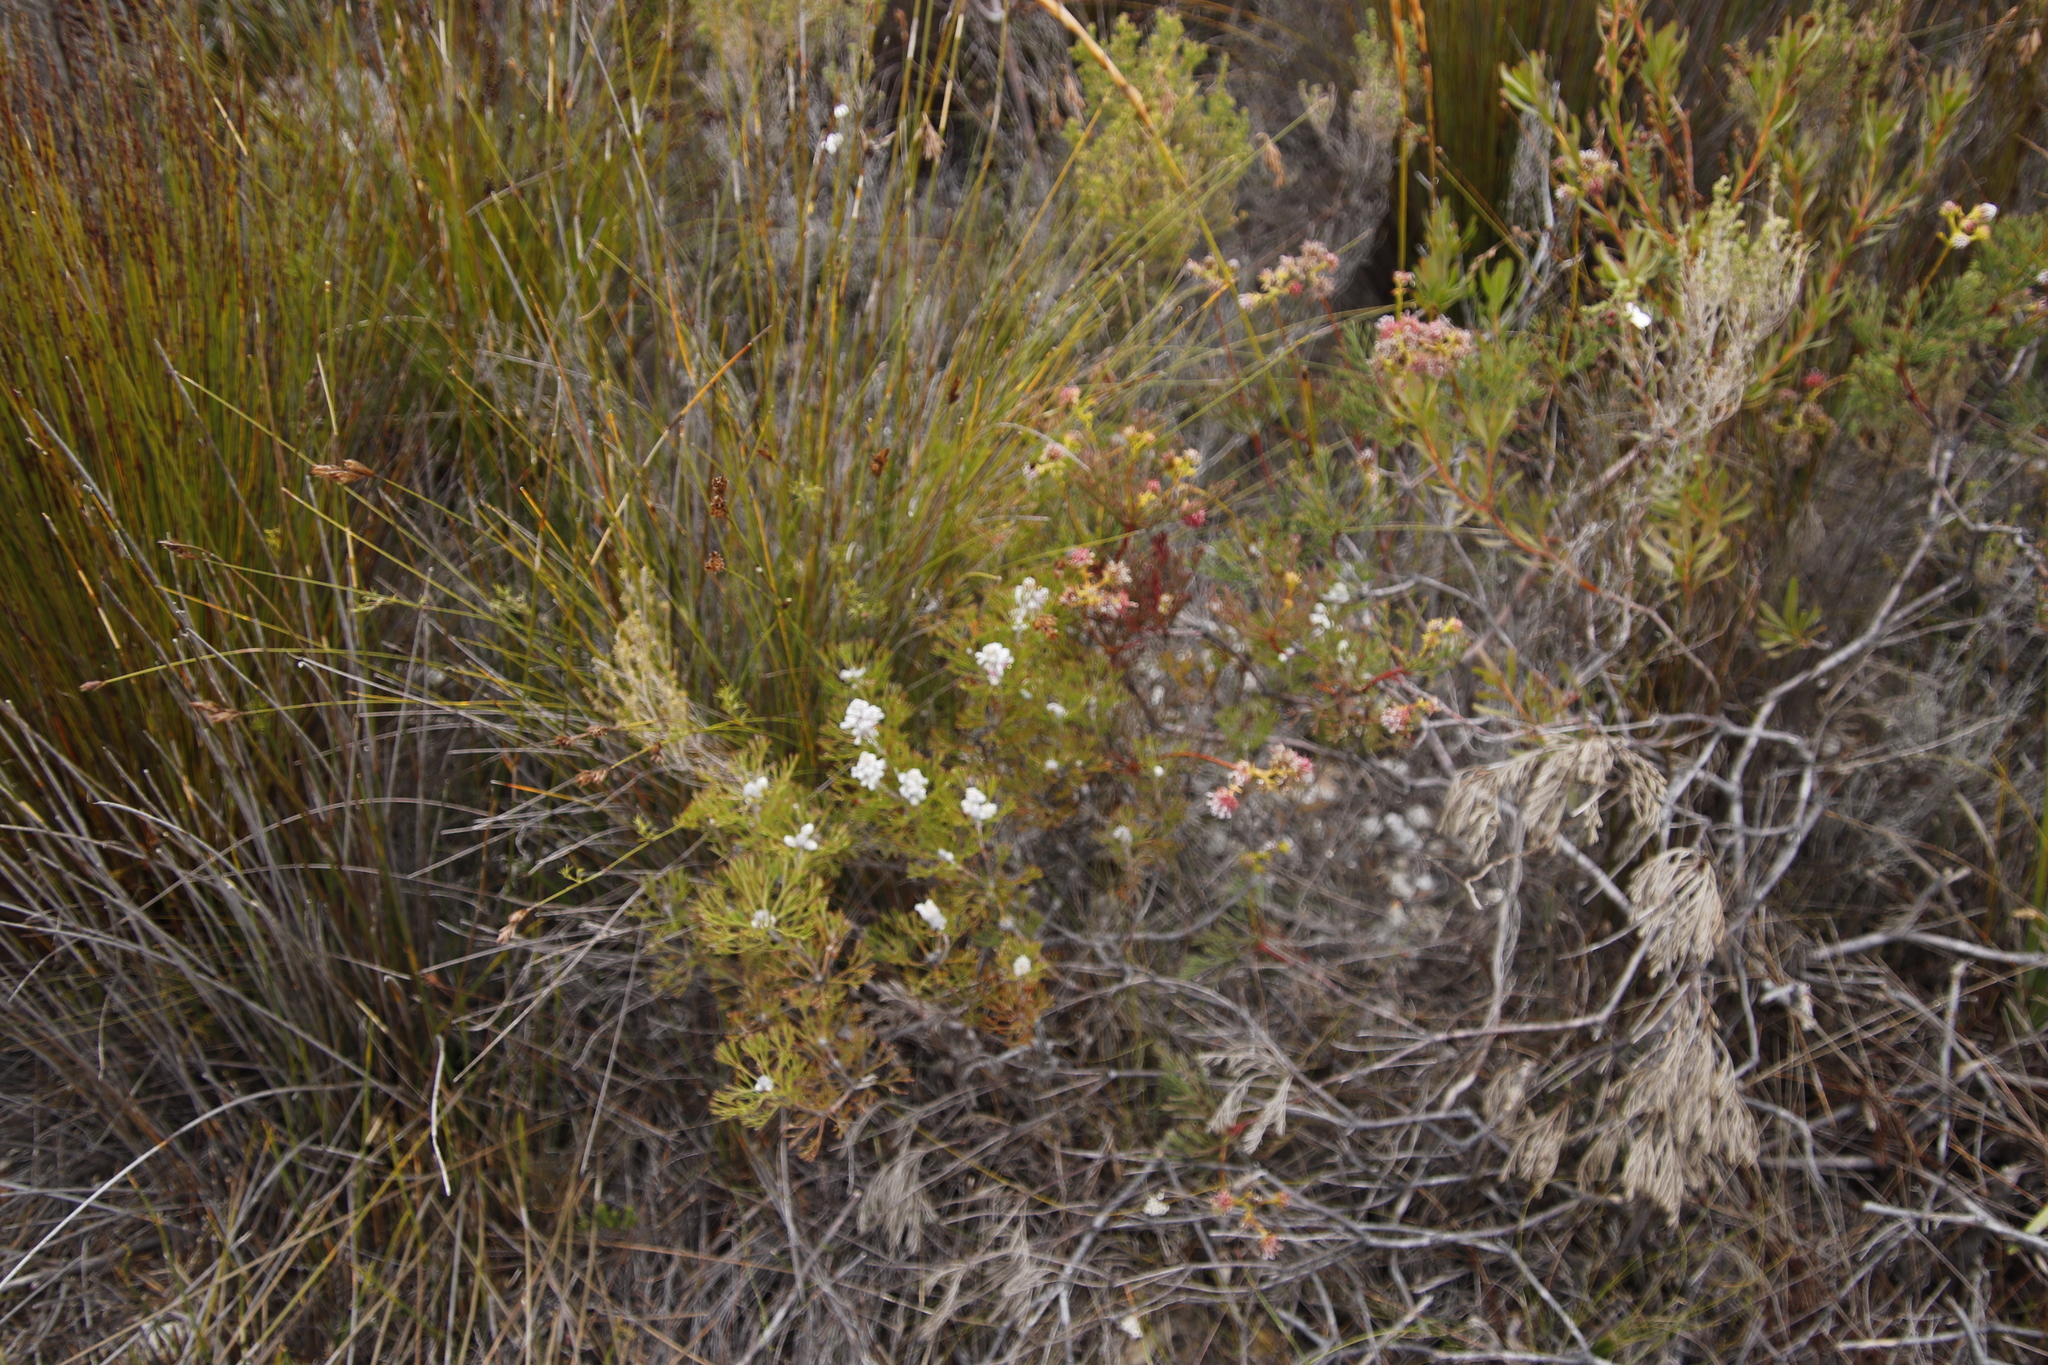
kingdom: Plantae
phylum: Tracheophyta
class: Magnoliopsida
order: Proteales
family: Proteaceae
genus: Paranomus
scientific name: Paranomus abrotanifolius
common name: Bredasdorp sceptre
